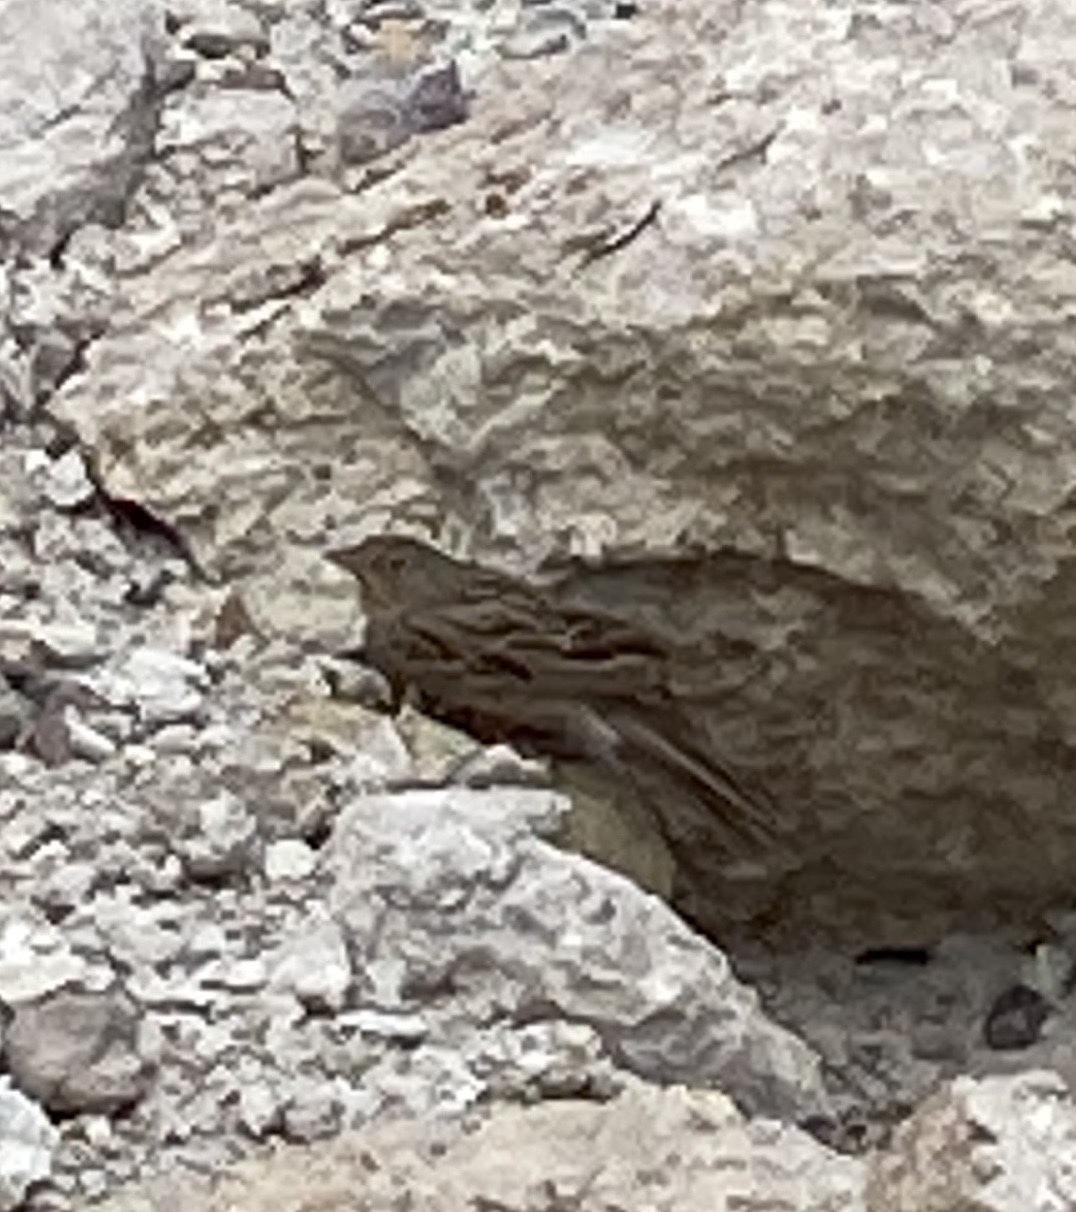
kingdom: Animalia
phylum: Chordata
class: Aves
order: Passeriformes
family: Emberizidae
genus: Emberiza
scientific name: Emberiza caesia
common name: Cretzschmar's bunting
